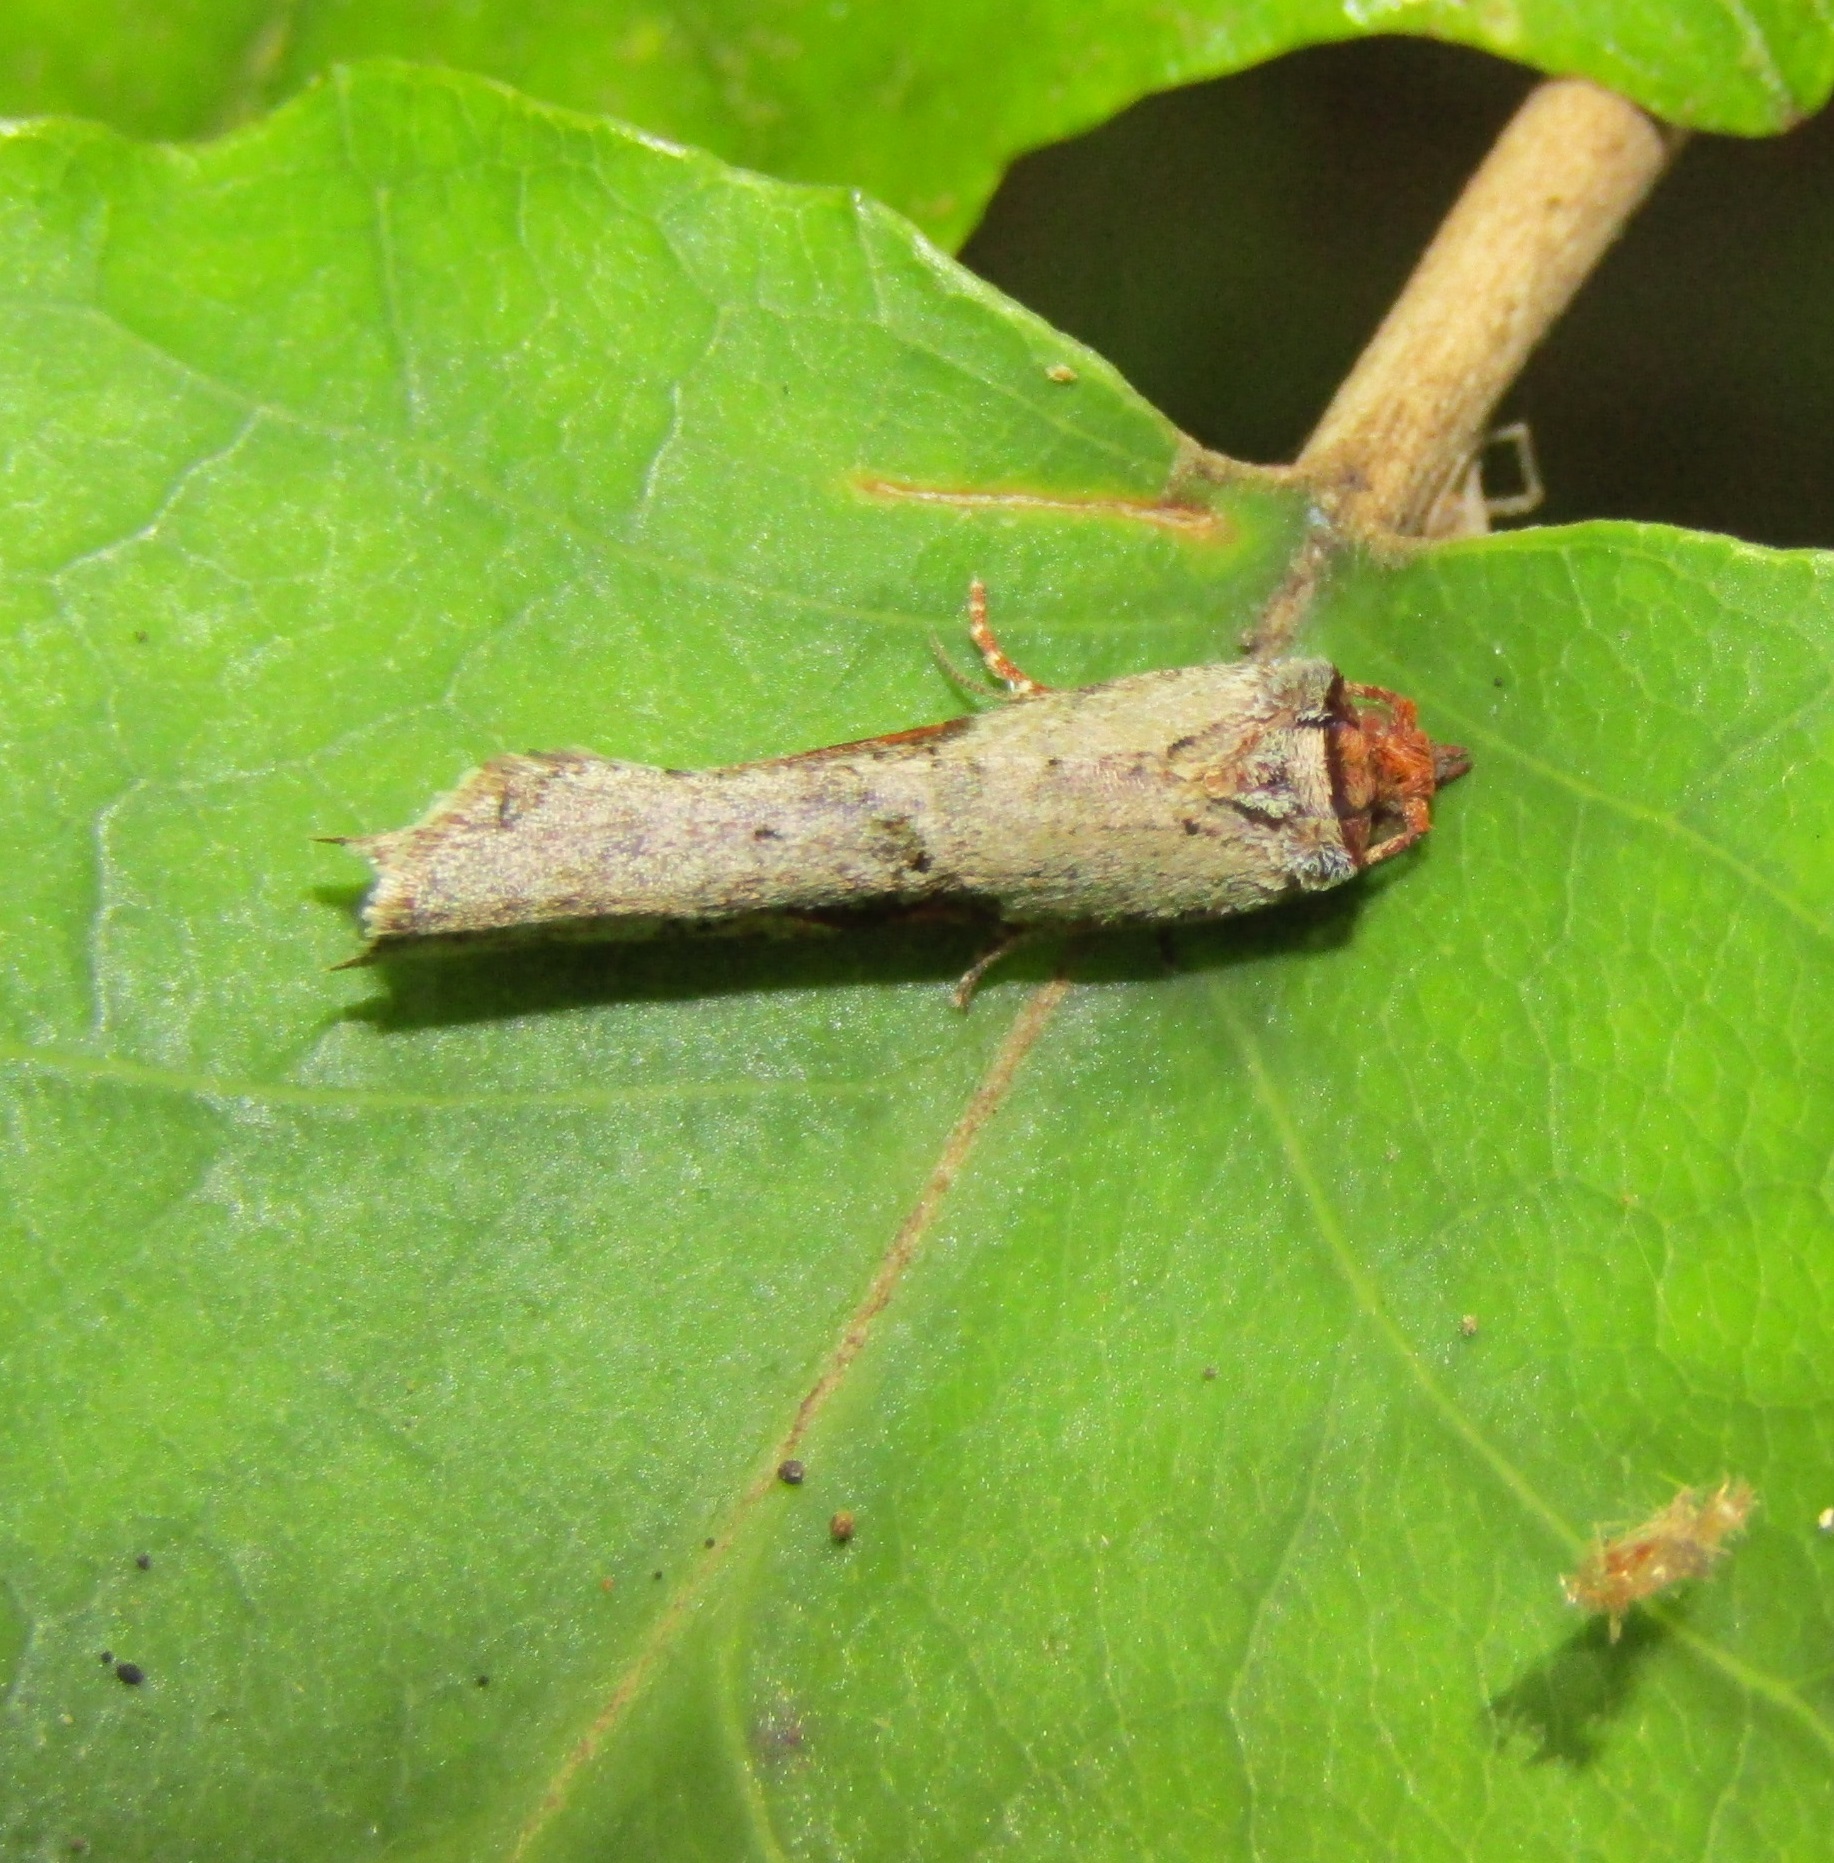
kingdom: Animalia
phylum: Arthropoda
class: Insecta
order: Lepidoptera
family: Tortricidae
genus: Epalxiphora
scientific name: Epalxiphora axenana
